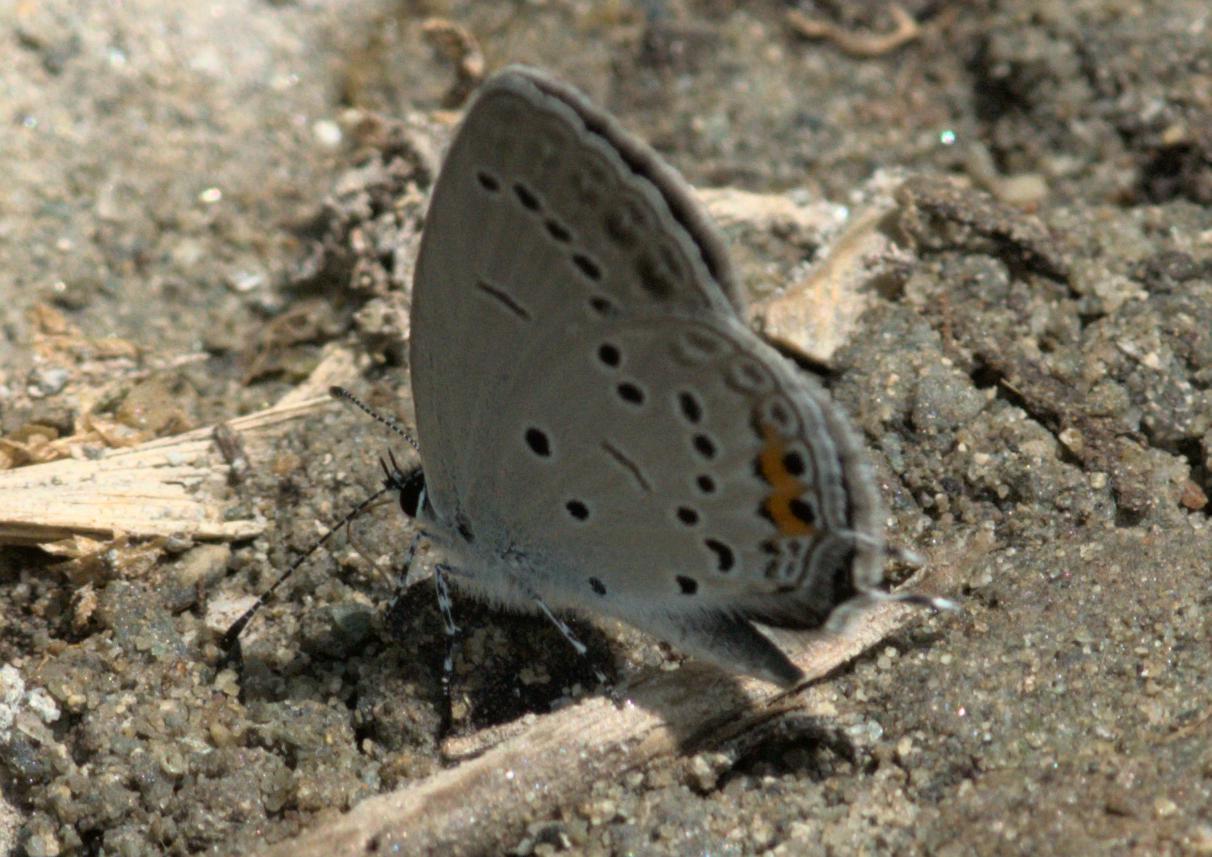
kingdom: Animalia
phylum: Arthropoda
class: Insecta
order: Lepidoptera
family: Lycaenidae
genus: Elkalyce
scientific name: Elkalyce argiades
